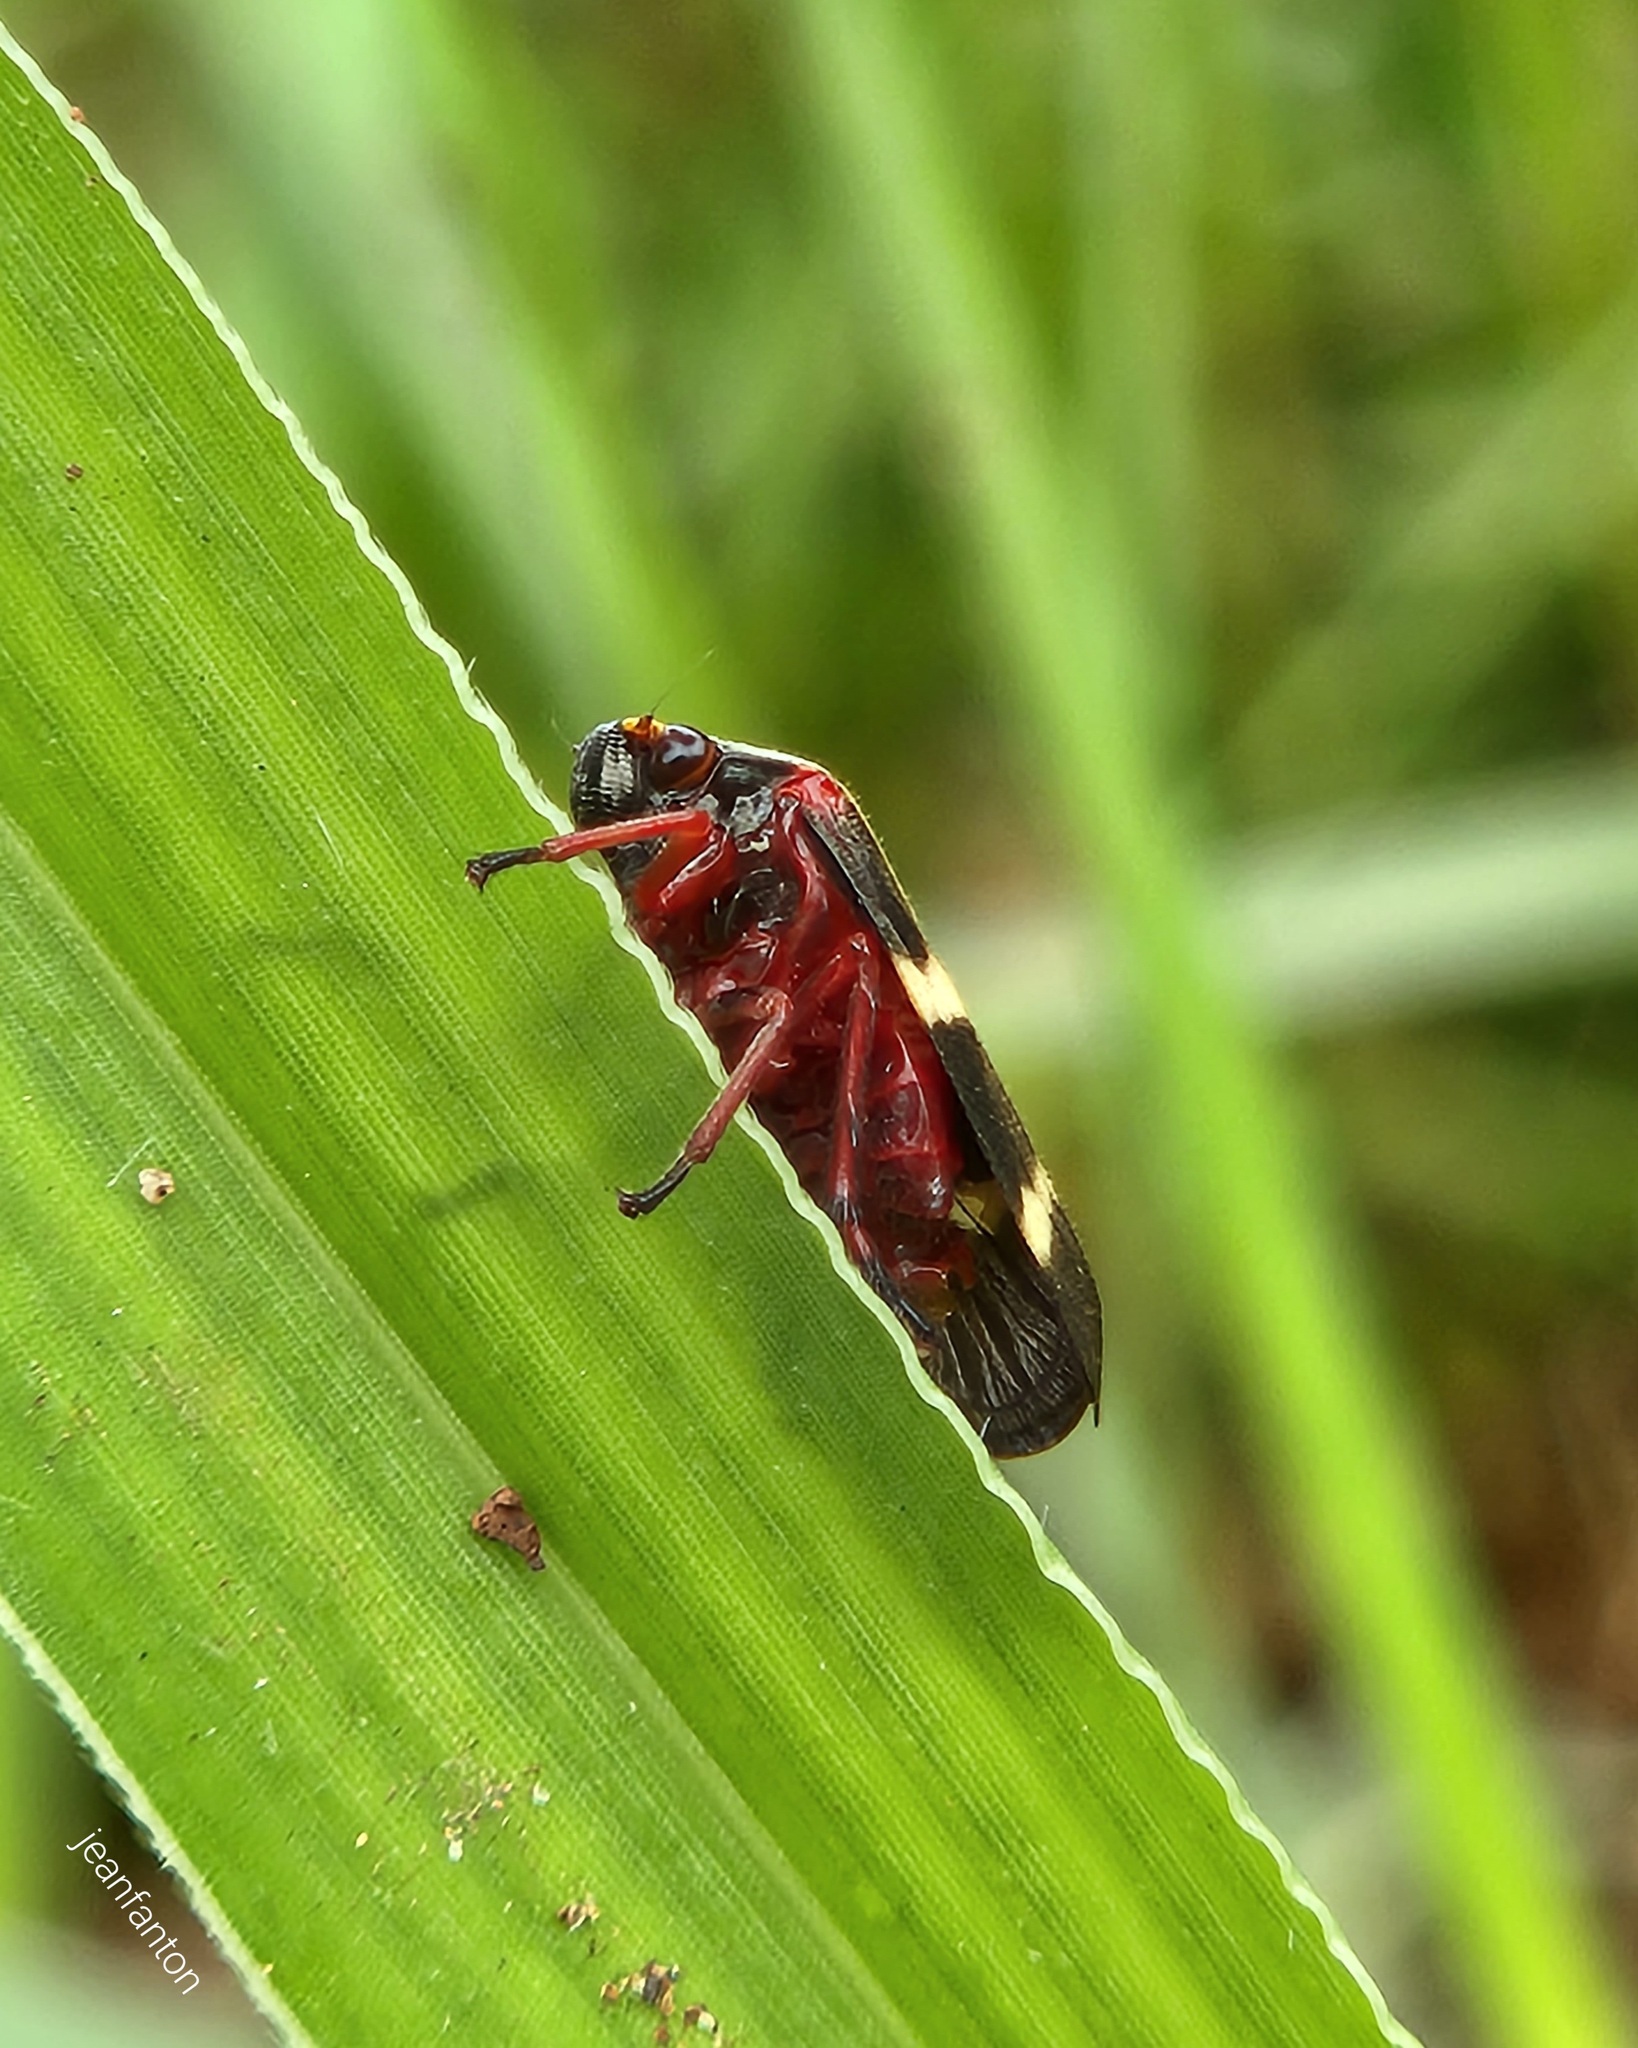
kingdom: Animalia
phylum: Arthropoda
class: Insecta
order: Hemiptera
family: Cercopidae
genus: Deois
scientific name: Deois flavopicta
